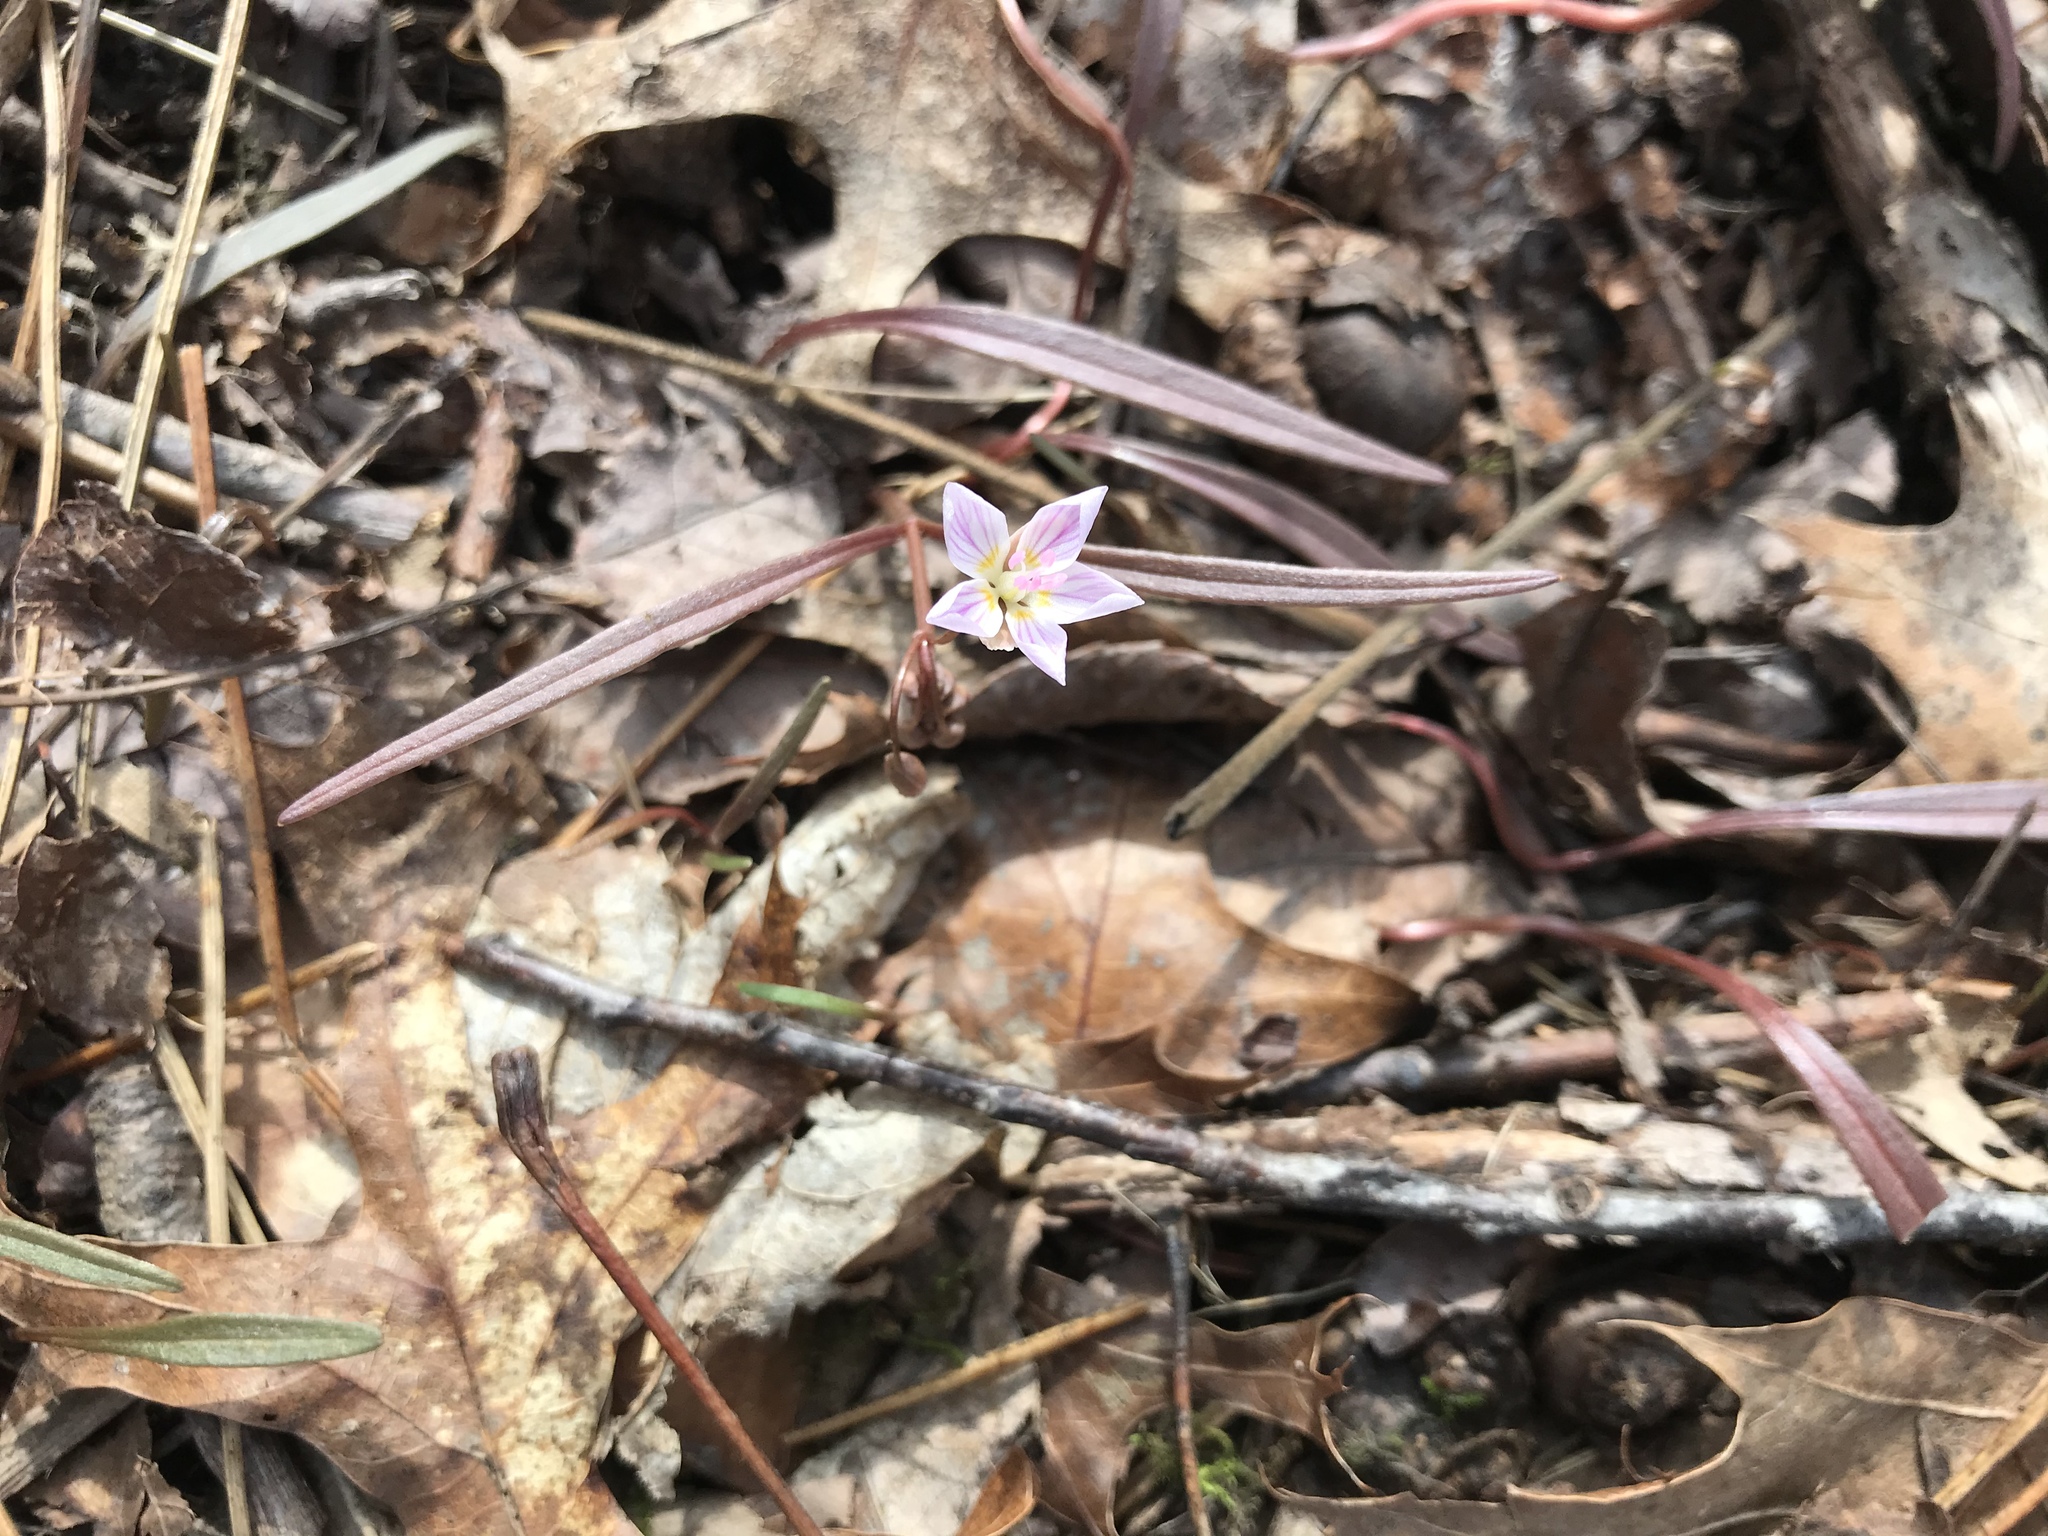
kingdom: Plantae
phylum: Tracheophyta
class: Magnoliopsida
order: Caryophyllales
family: Montiaceae
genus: Claytonia
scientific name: Claytonia virginica
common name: Virginia springbeauty
